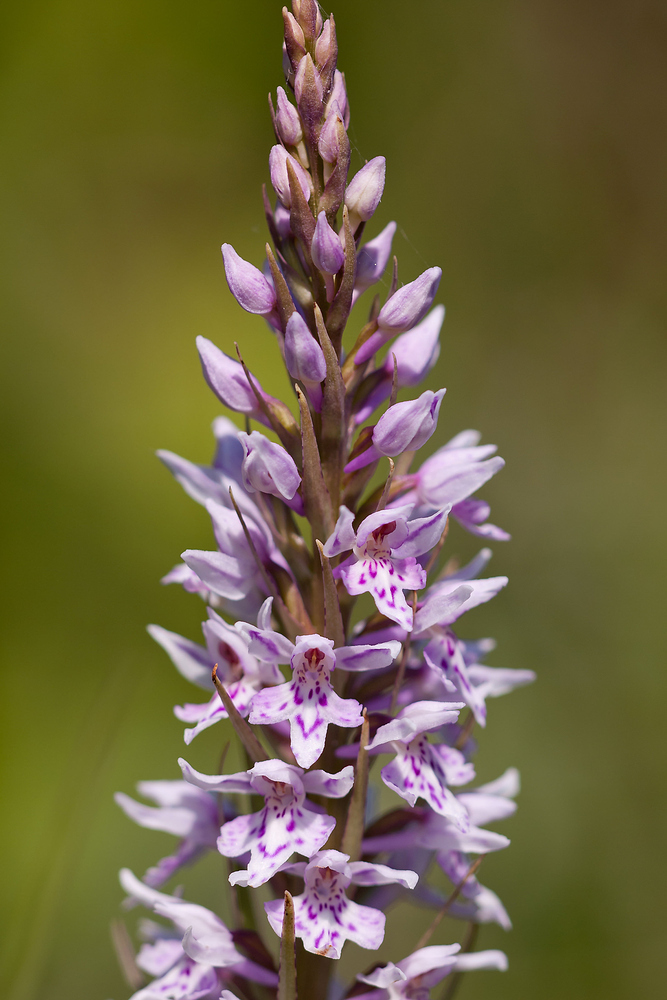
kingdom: Plantae
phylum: Tracheophyta
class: Liliopsida
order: Asparagales
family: Orchidaceae
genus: Dactylorhiza
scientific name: Dactylorhiza maculata
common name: Heath spotted-orchid
